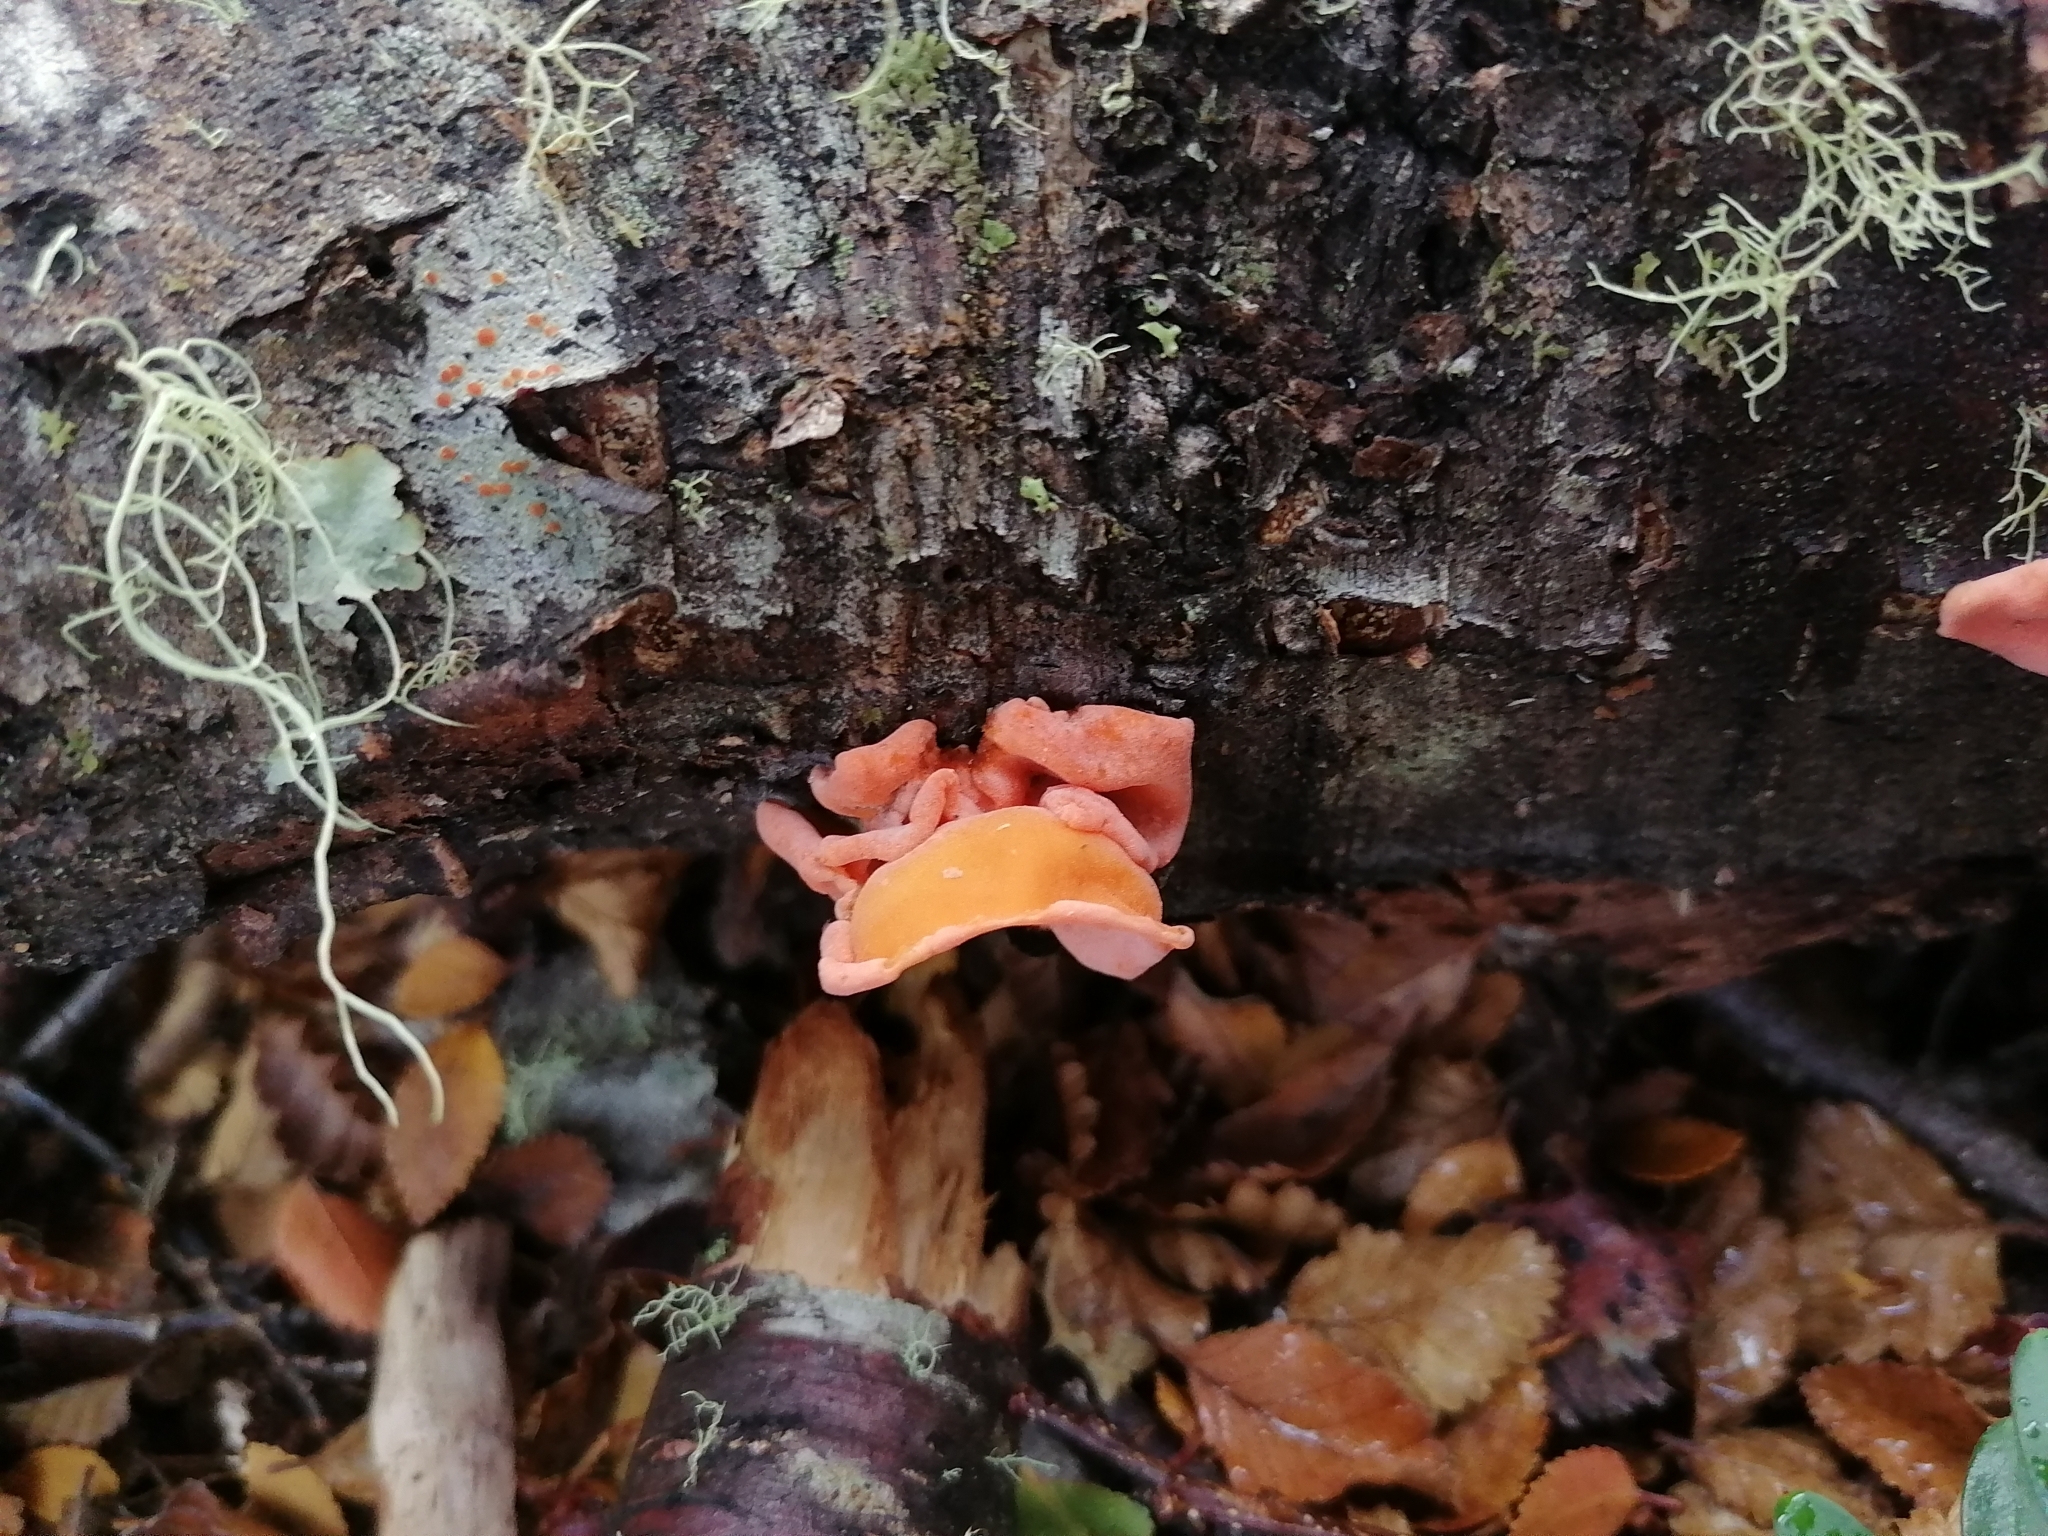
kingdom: Fungi
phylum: Basidiomycota
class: Agaricomycetes
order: Russulales
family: Stereaceae
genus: Aleurodiscus
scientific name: Aleurodiscus vitellinus
